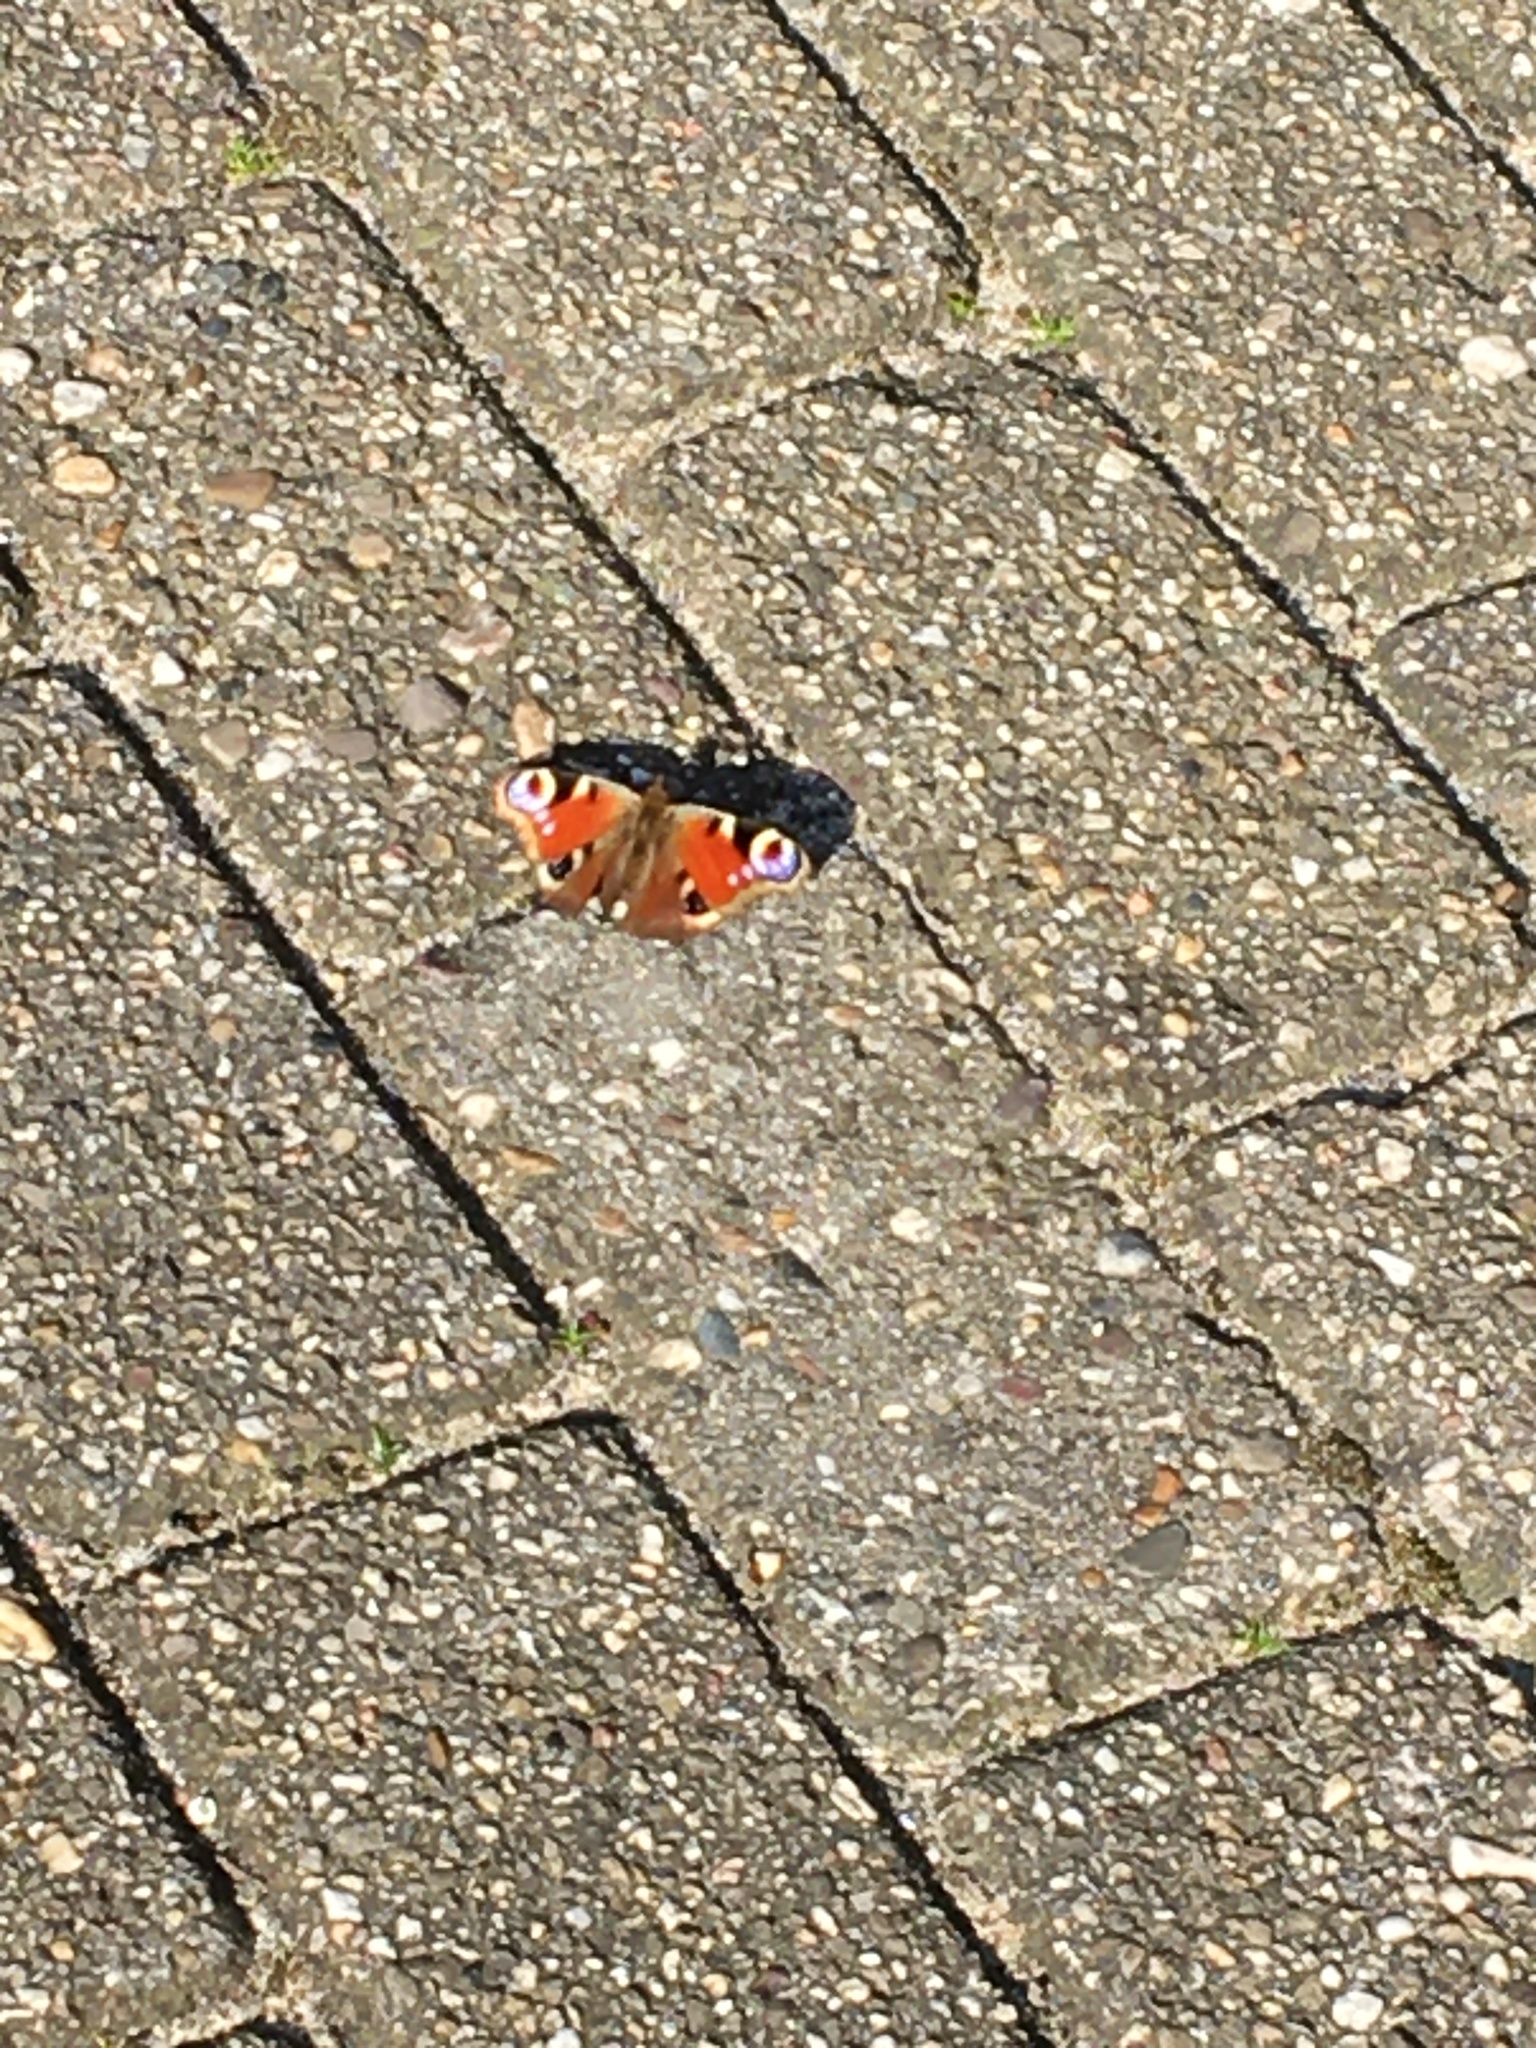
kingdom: Animalia
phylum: Arthropoda
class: Insecta
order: Lepidoptera
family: Nymphalidae
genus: Aglais
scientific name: Aglais io
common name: Peacock
